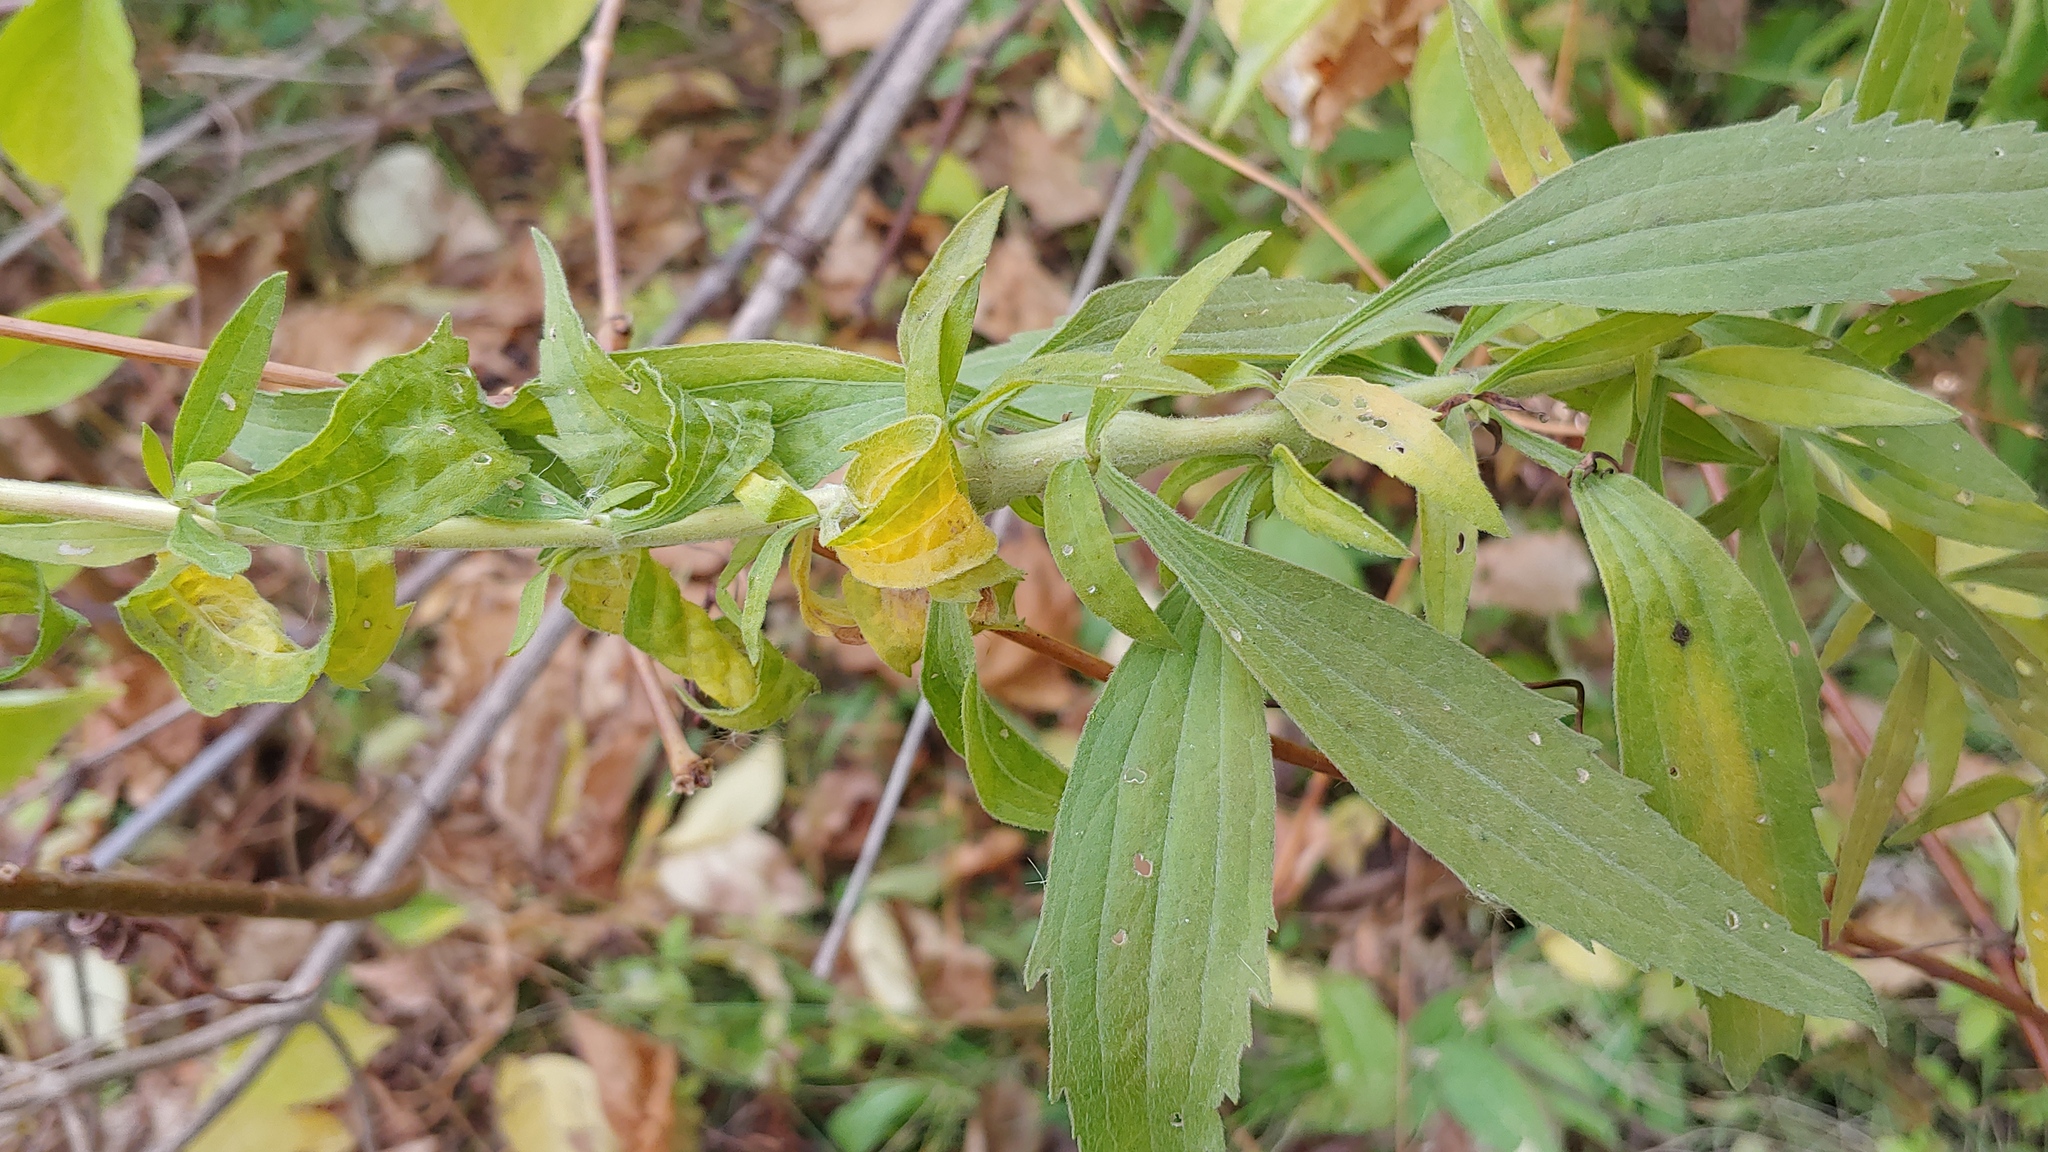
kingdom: Plantae
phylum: Tracheophyta
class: Magnoliopsida
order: Asterales
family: Asteraceae
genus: Eupatorium
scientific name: Eupatorium altissimum
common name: Tall thoroughwort
